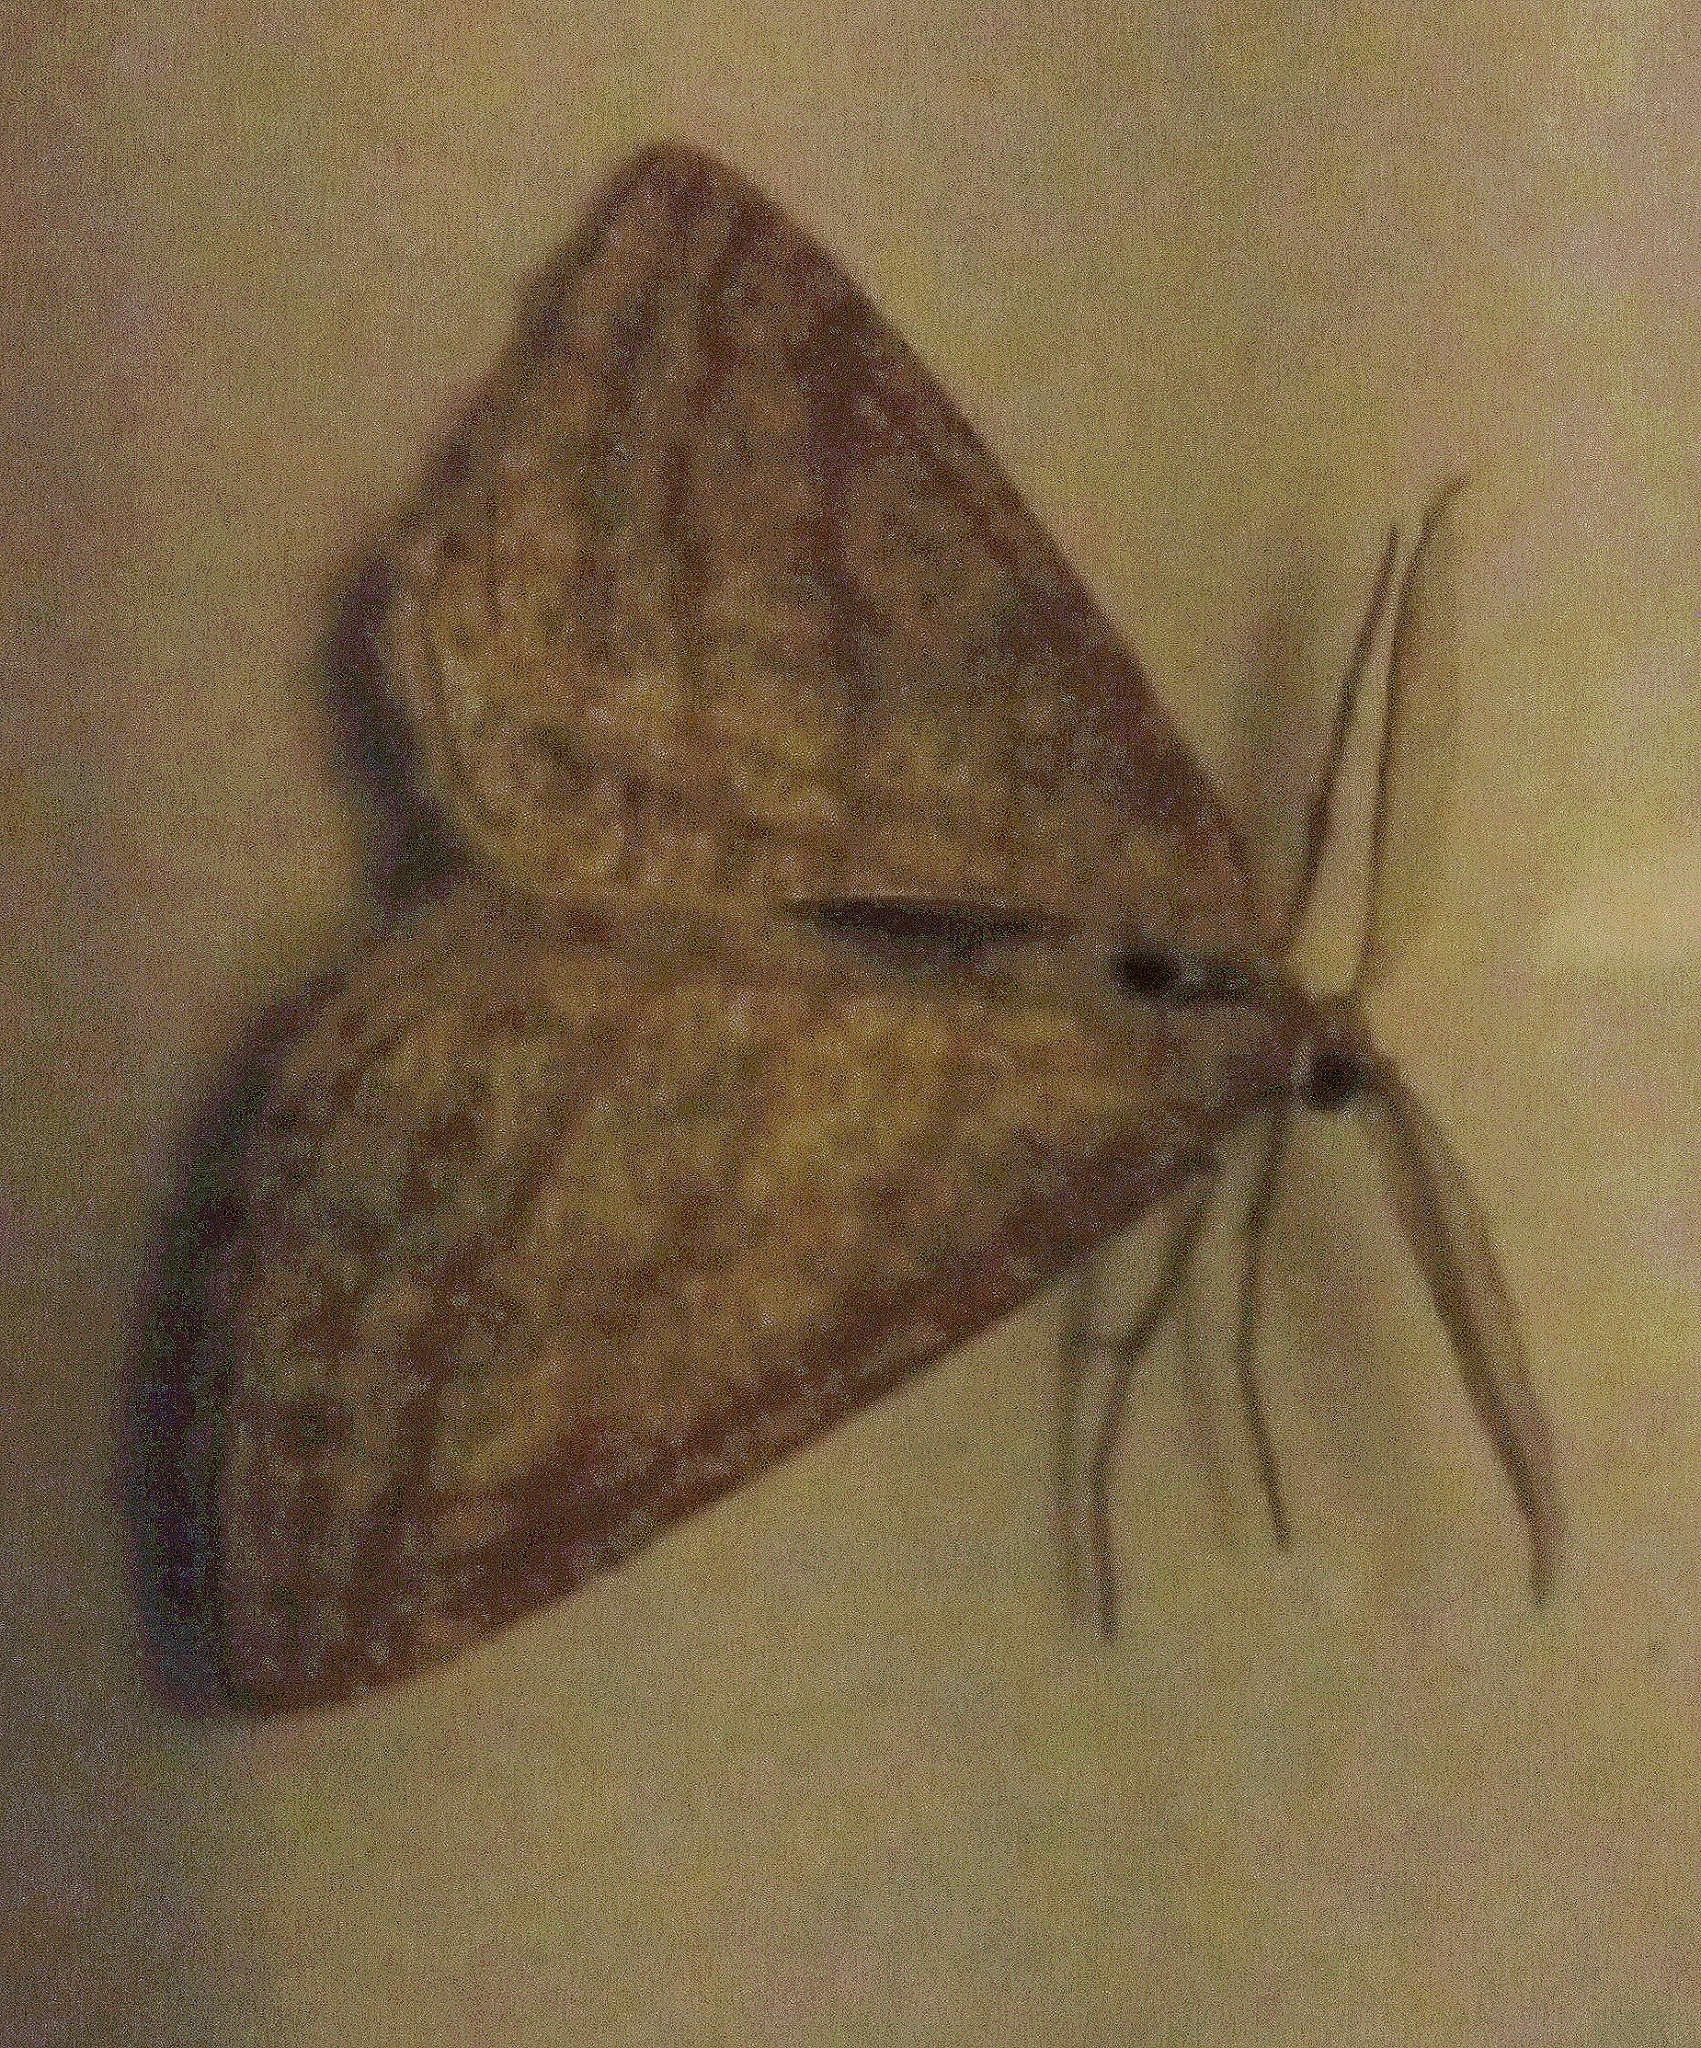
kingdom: Animalia
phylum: Arthropoda
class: Insecta
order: Lepidoptera
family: Geometridae
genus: Perconia
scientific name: Perconia strigillaria
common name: Grass wave
